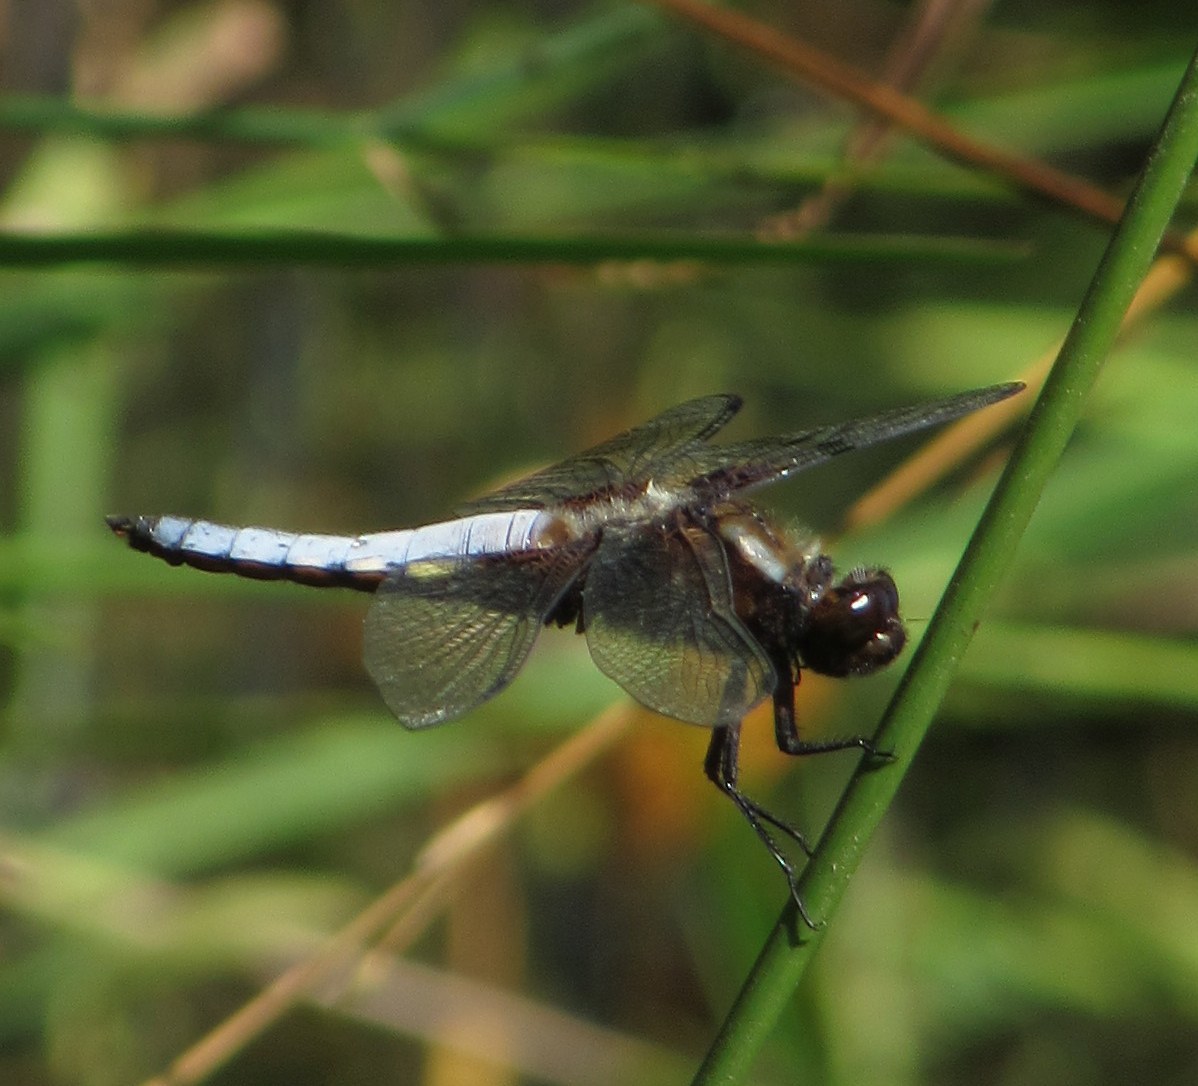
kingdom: Animalia
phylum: Arthropoda
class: Insecta
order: Odonata
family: Libellulidae
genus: Libellula
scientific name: Libellula depressa
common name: Broad-bodied chaser
